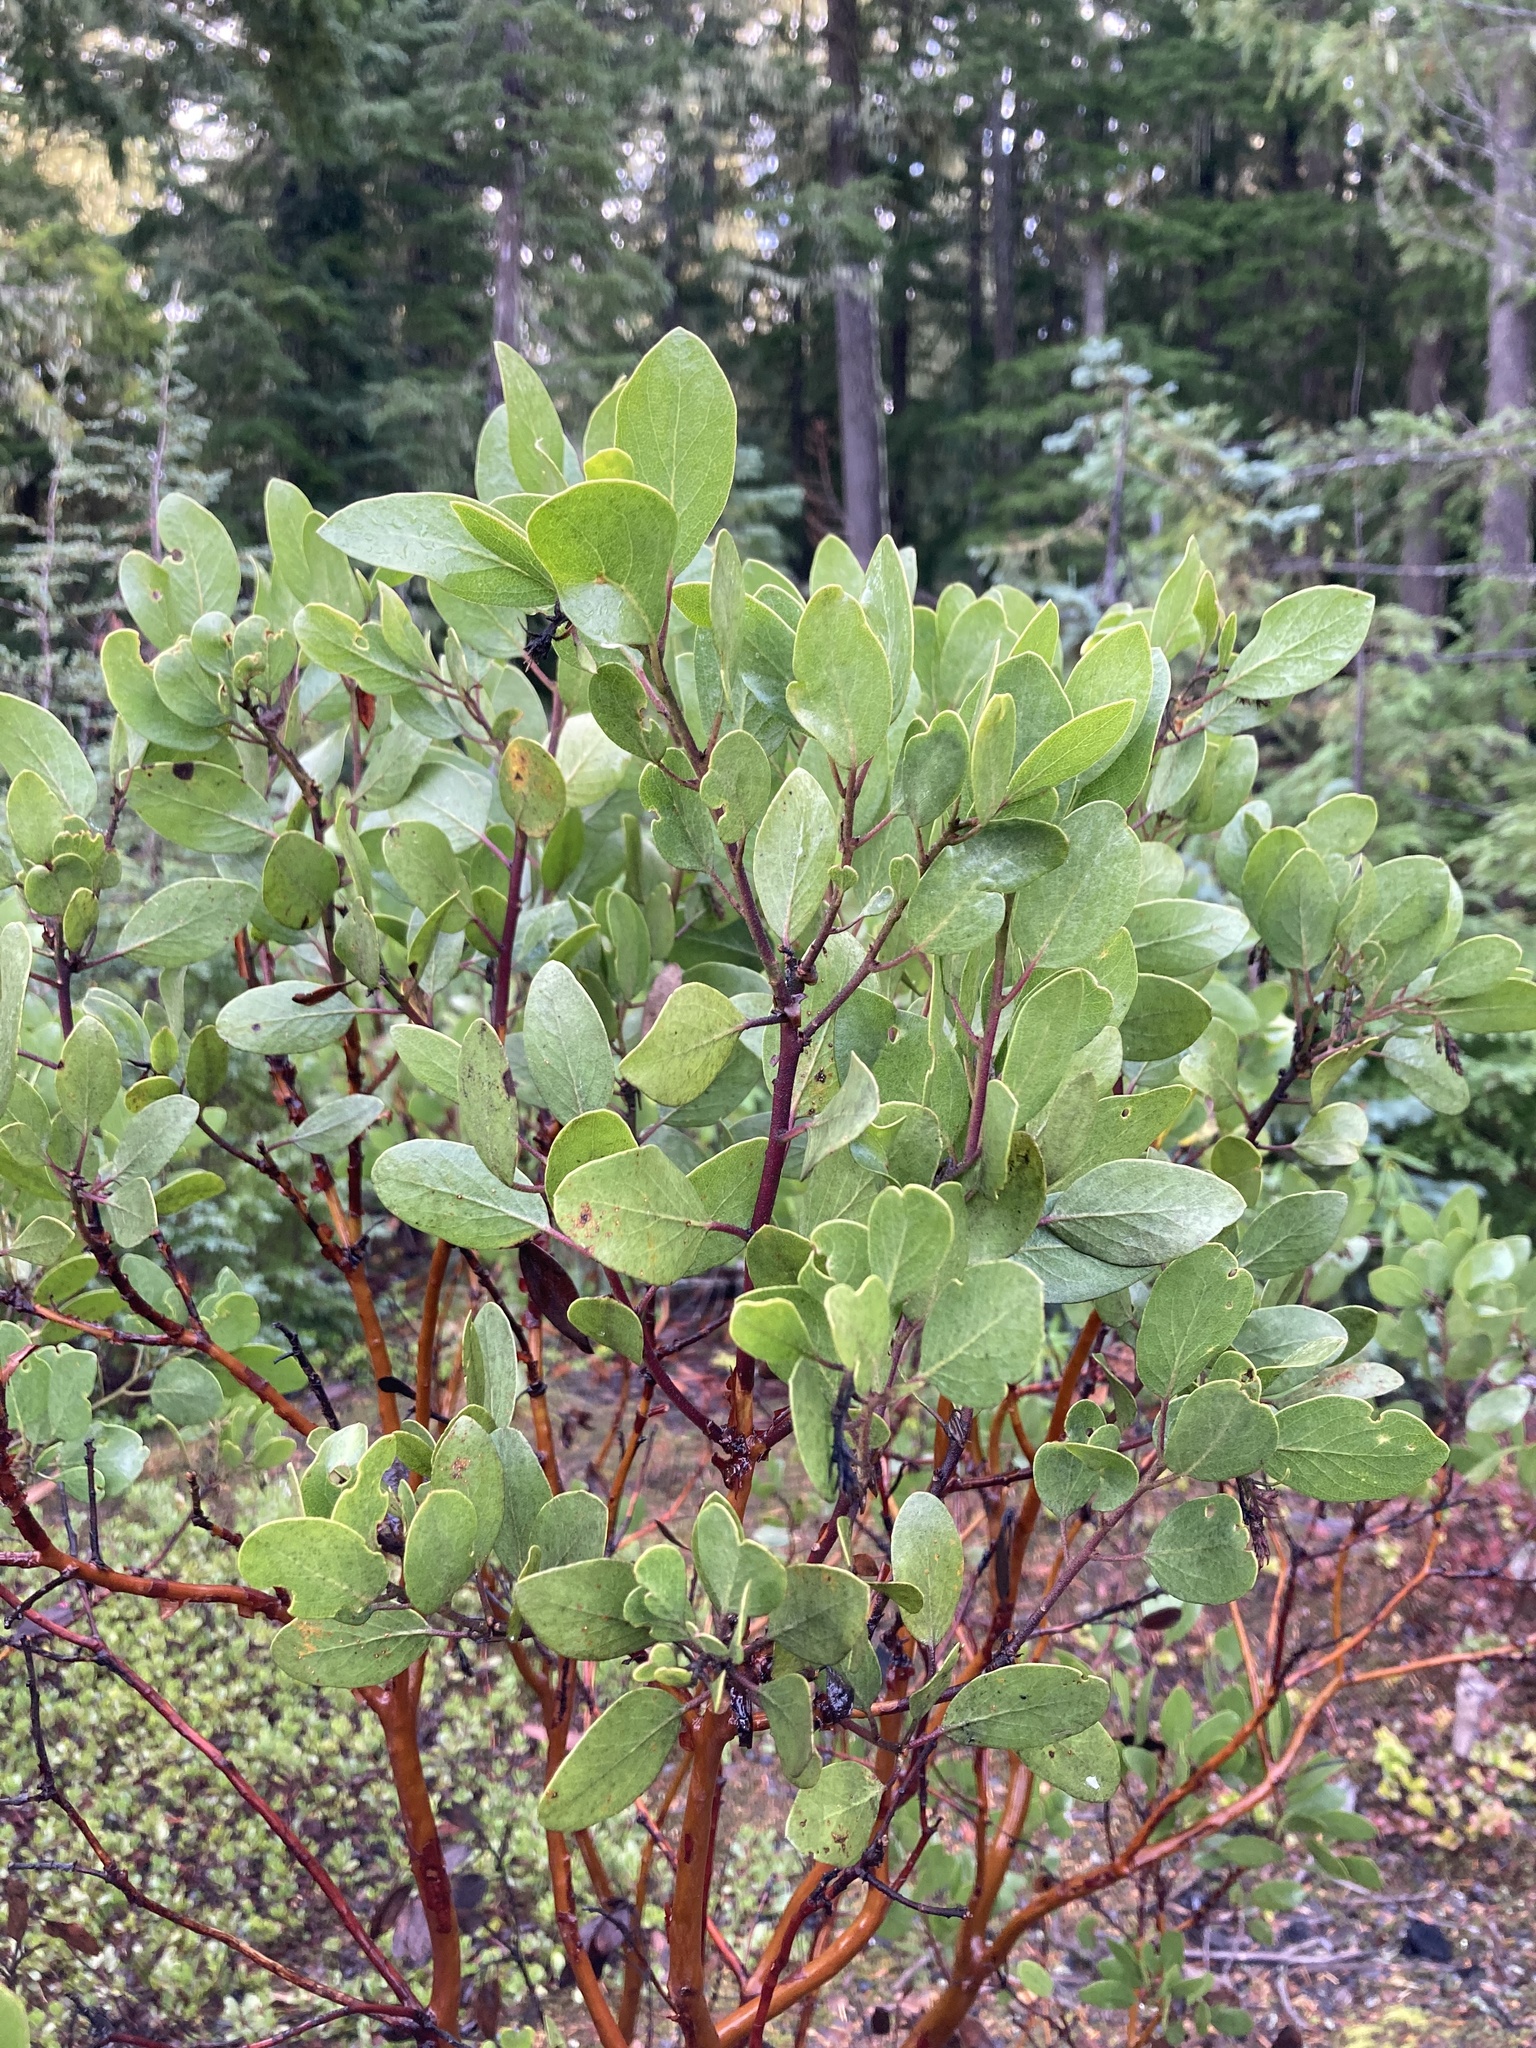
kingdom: Plantae
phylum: Tracheophyta
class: Magnoliopsida
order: Ericales
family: Ericaceae
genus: Arctostaphylos
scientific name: Arctostaphylos patula
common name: Green-leaf manzanita
